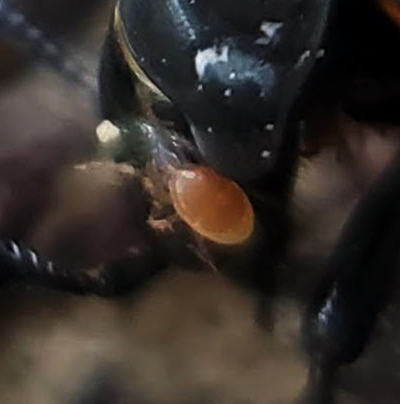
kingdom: Animalia
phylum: Arthropoda
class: Arachnida
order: Mesostigmata
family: Parasitidae
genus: Poecilochirus
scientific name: Poecilochirus
